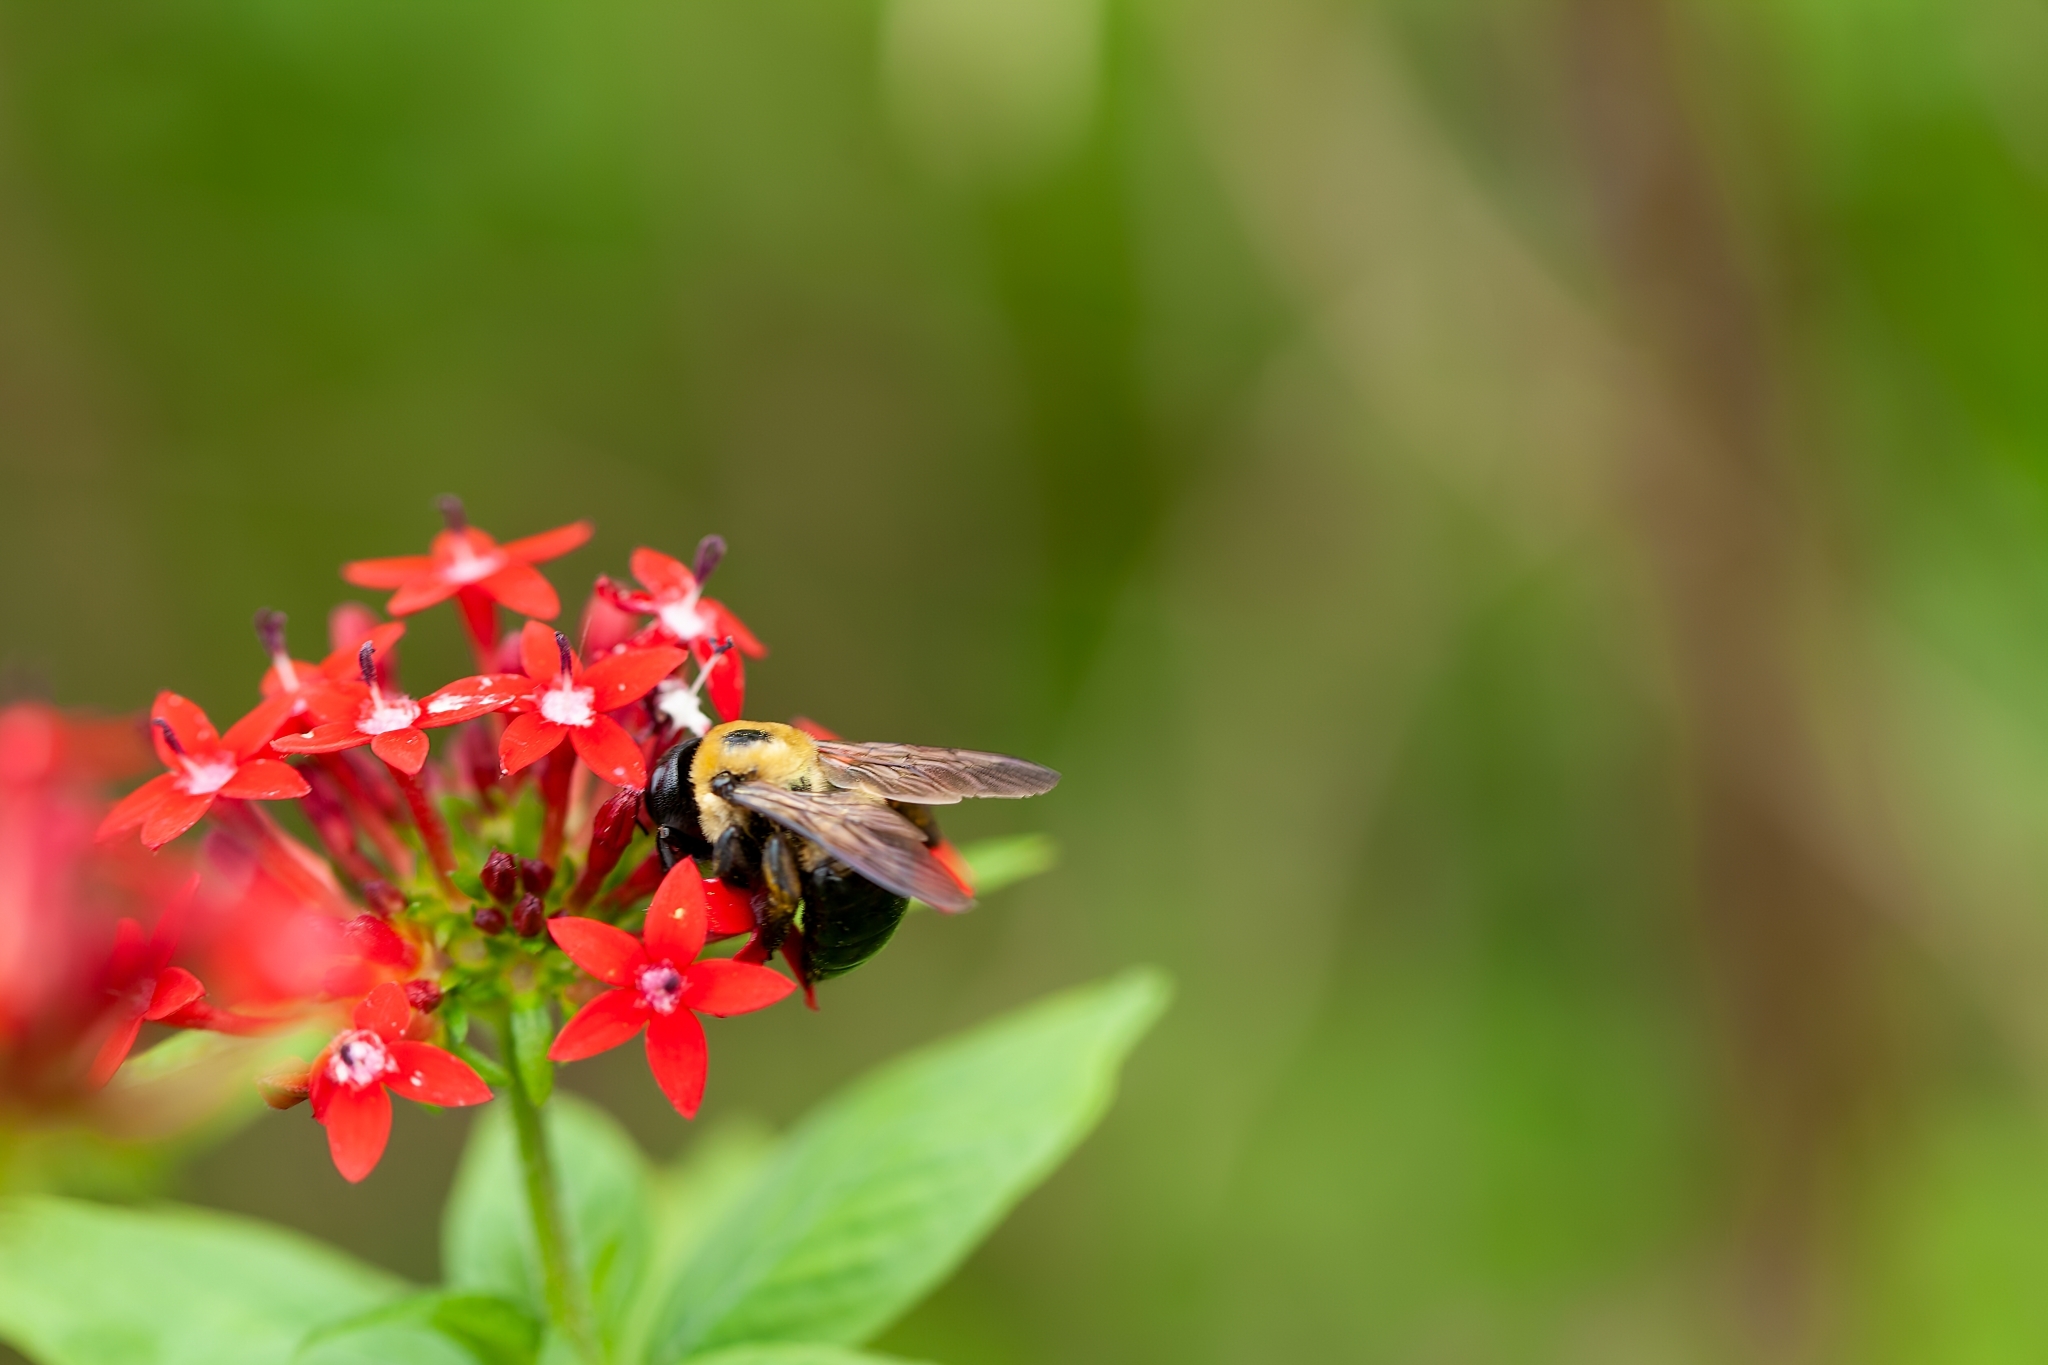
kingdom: Animalia
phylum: Arthropoda
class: Insecta
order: Hymenoptera
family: Apidae
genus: Xylocopa
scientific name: Xylocopa virginica
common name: Carpenter bee
